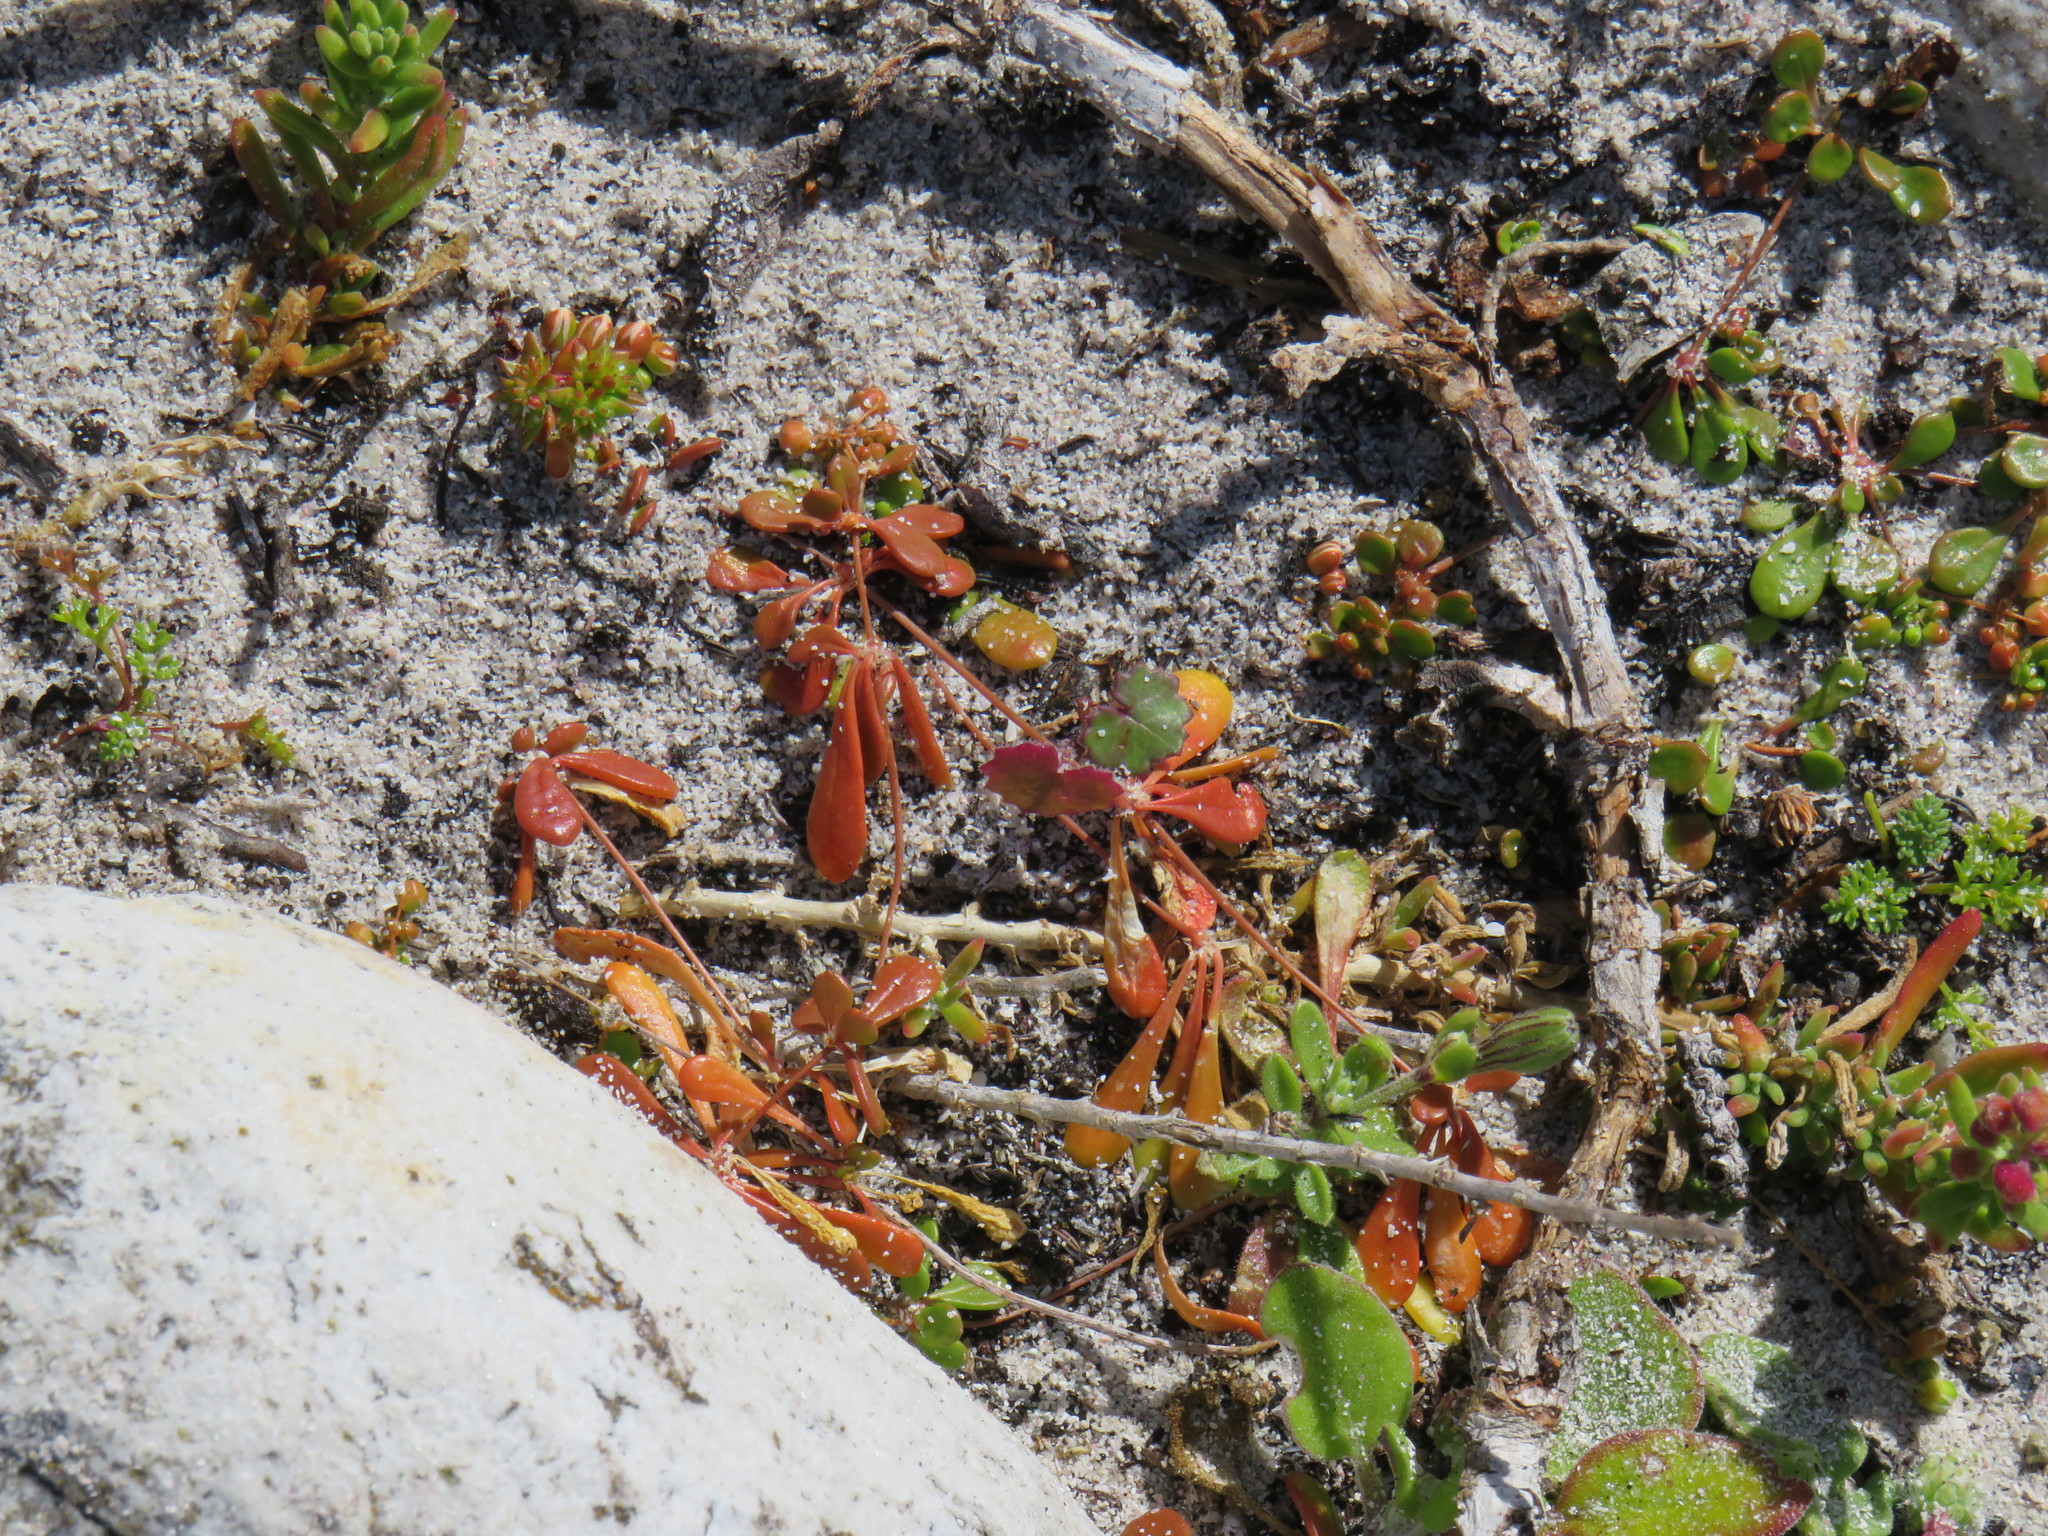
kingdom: Plantae
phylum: Tracheophyta
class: Magnoliopsida
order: Caryophyllales
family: Molluginaceae
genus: Pharnaceum
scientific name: Pharnaceum cordifolium
